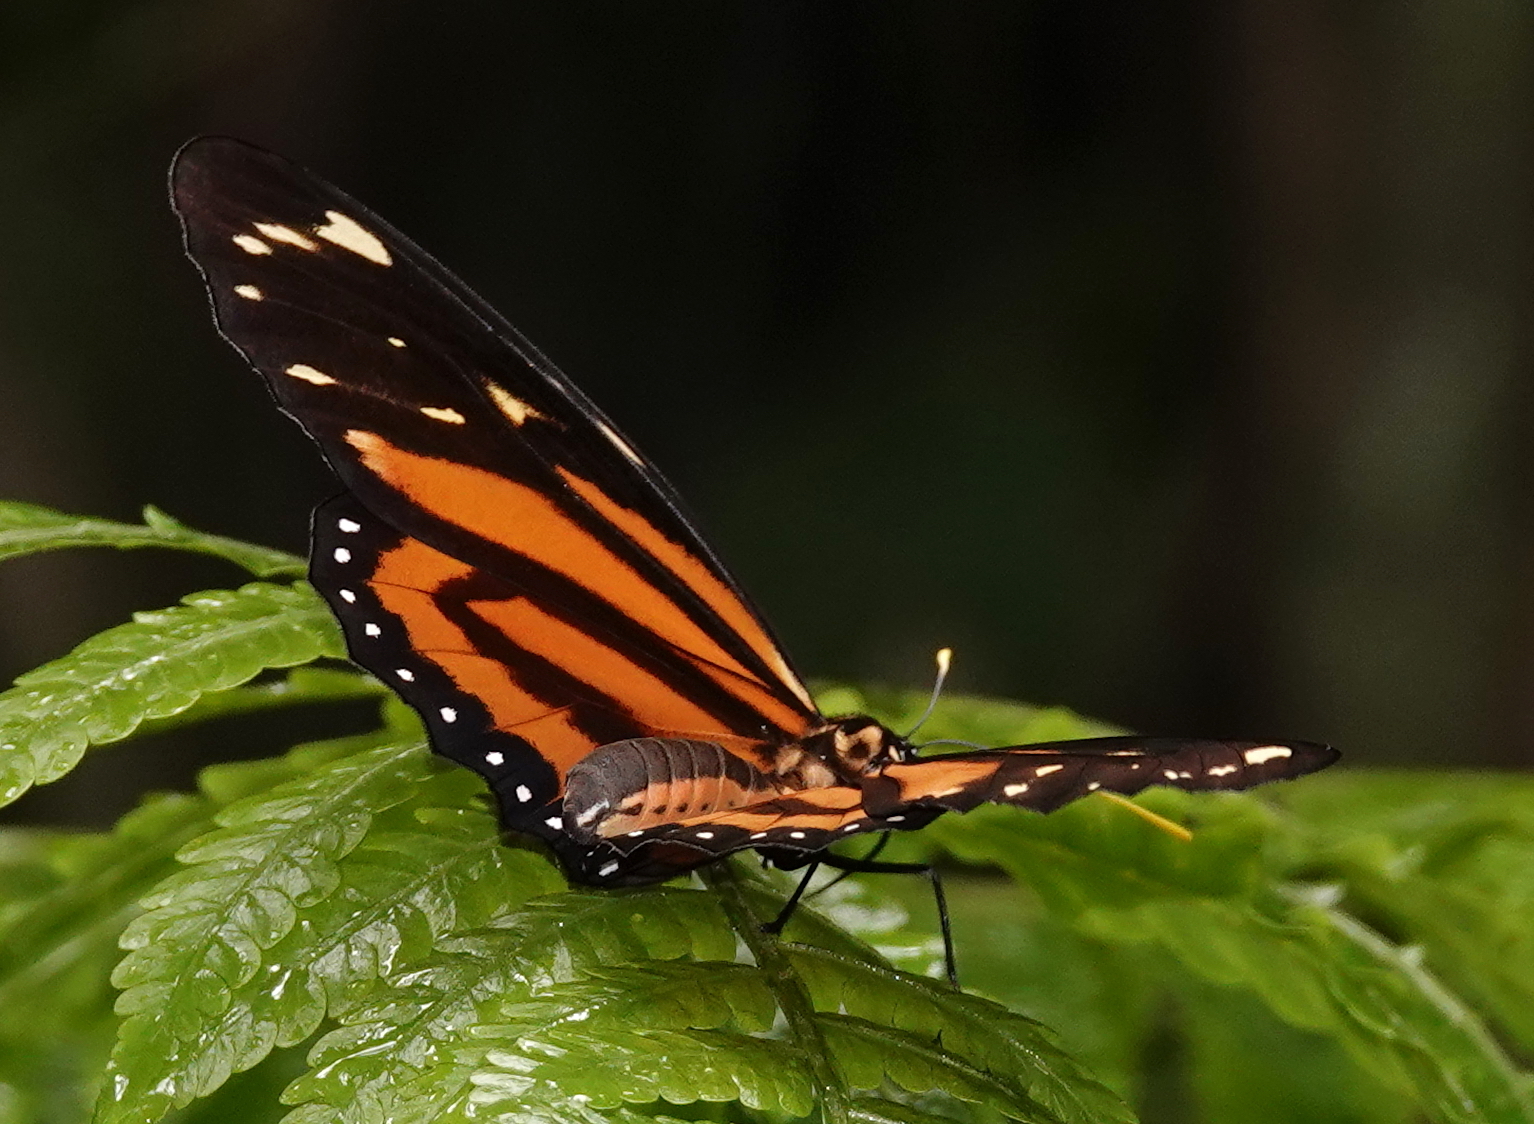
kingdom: Animalia
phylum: Arthropoda
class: Insecta
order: Lepidoptera
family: Nymphalidae
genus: Lycorea
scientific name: Lycorea cleobaea
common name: Tiger mimic-queen
